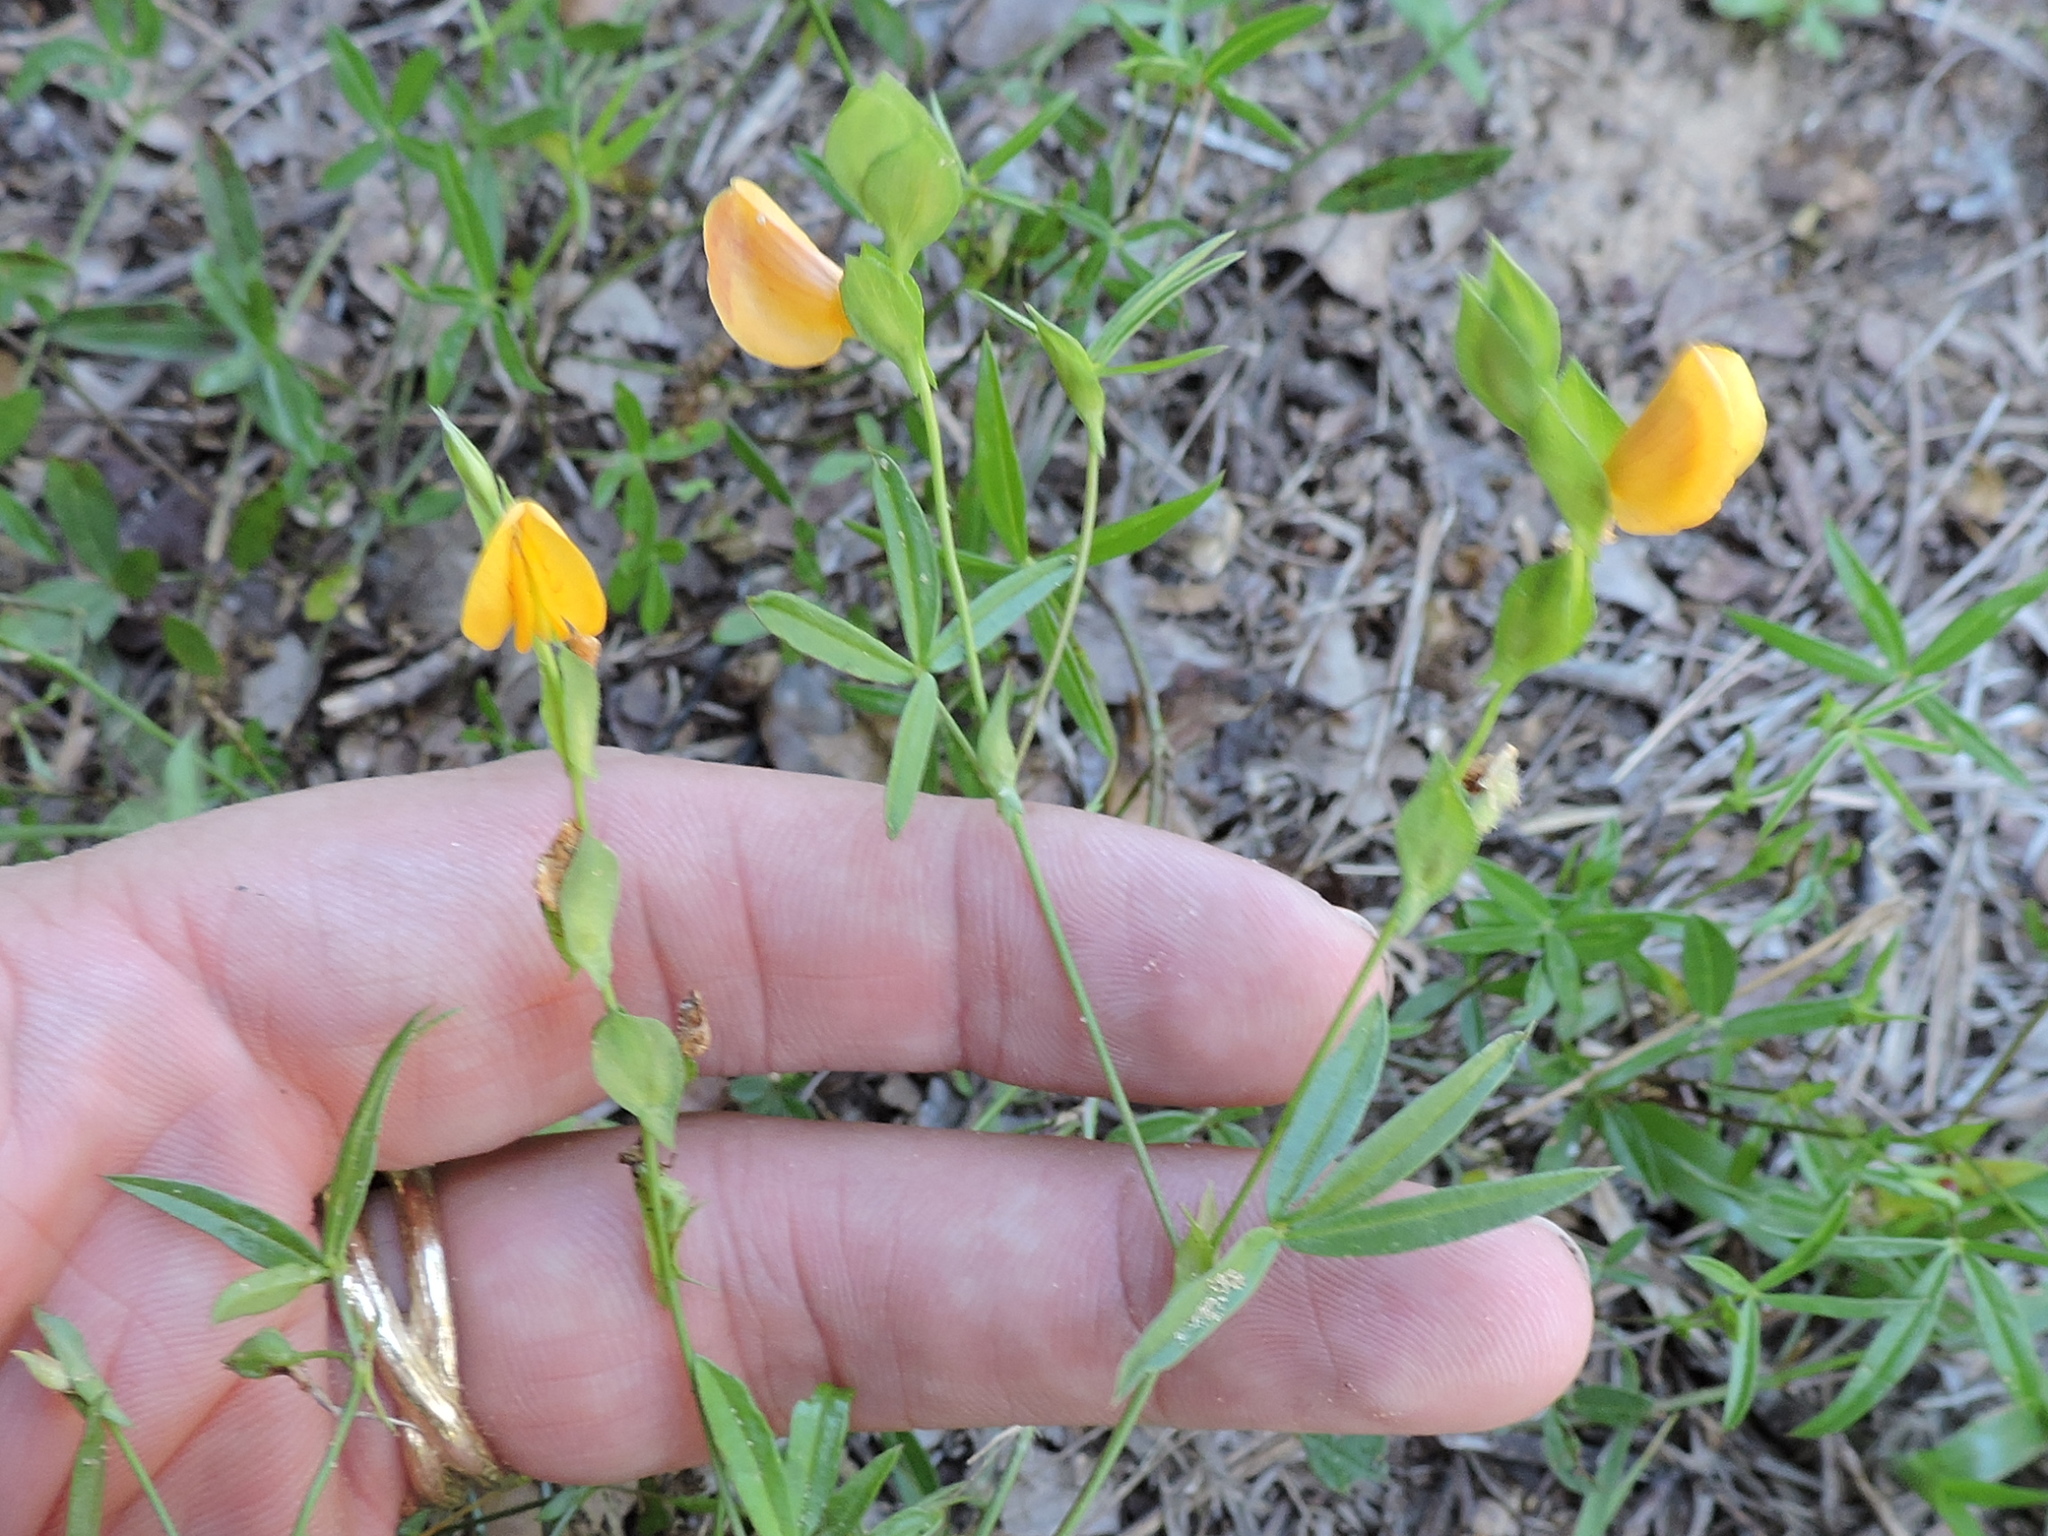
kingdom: Plantae
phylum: Tracheophyta
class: Magnoliopsida
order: Fabales
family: Fabaceae
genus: Zornia
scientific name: Zornia bracteata
